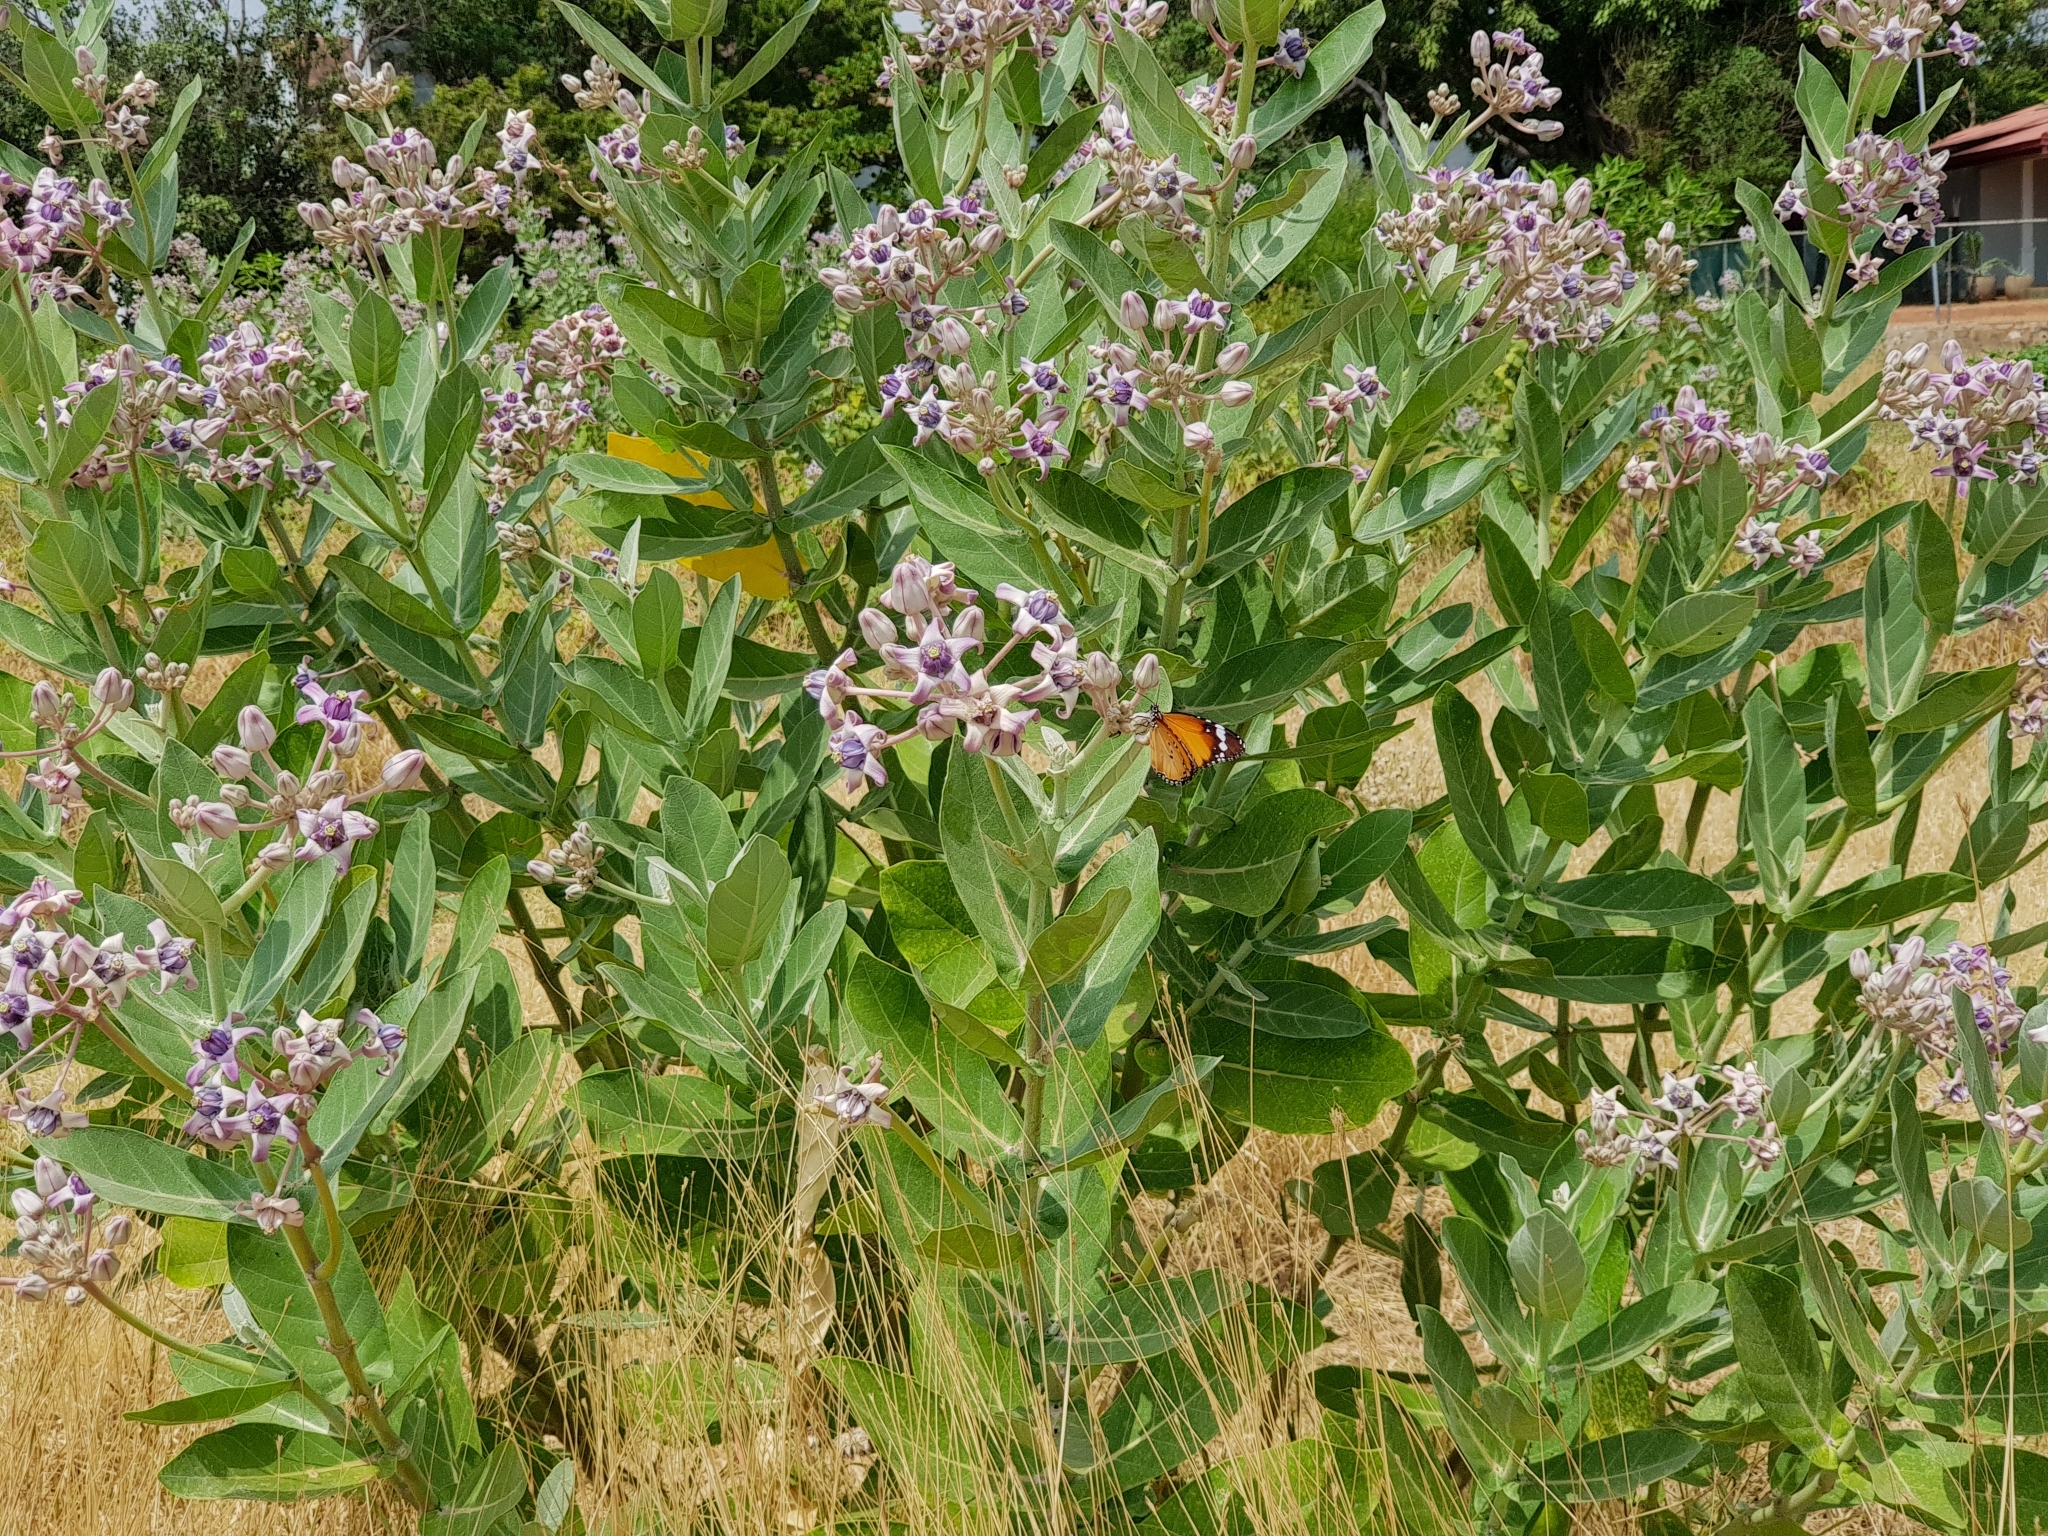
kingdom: Plantae
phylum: Tracheophyta
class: Magnoliopsida
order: Gentianales
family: Apocynaceae
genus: Calotropis
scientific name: Calotropis gigantea
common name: Crown flower
